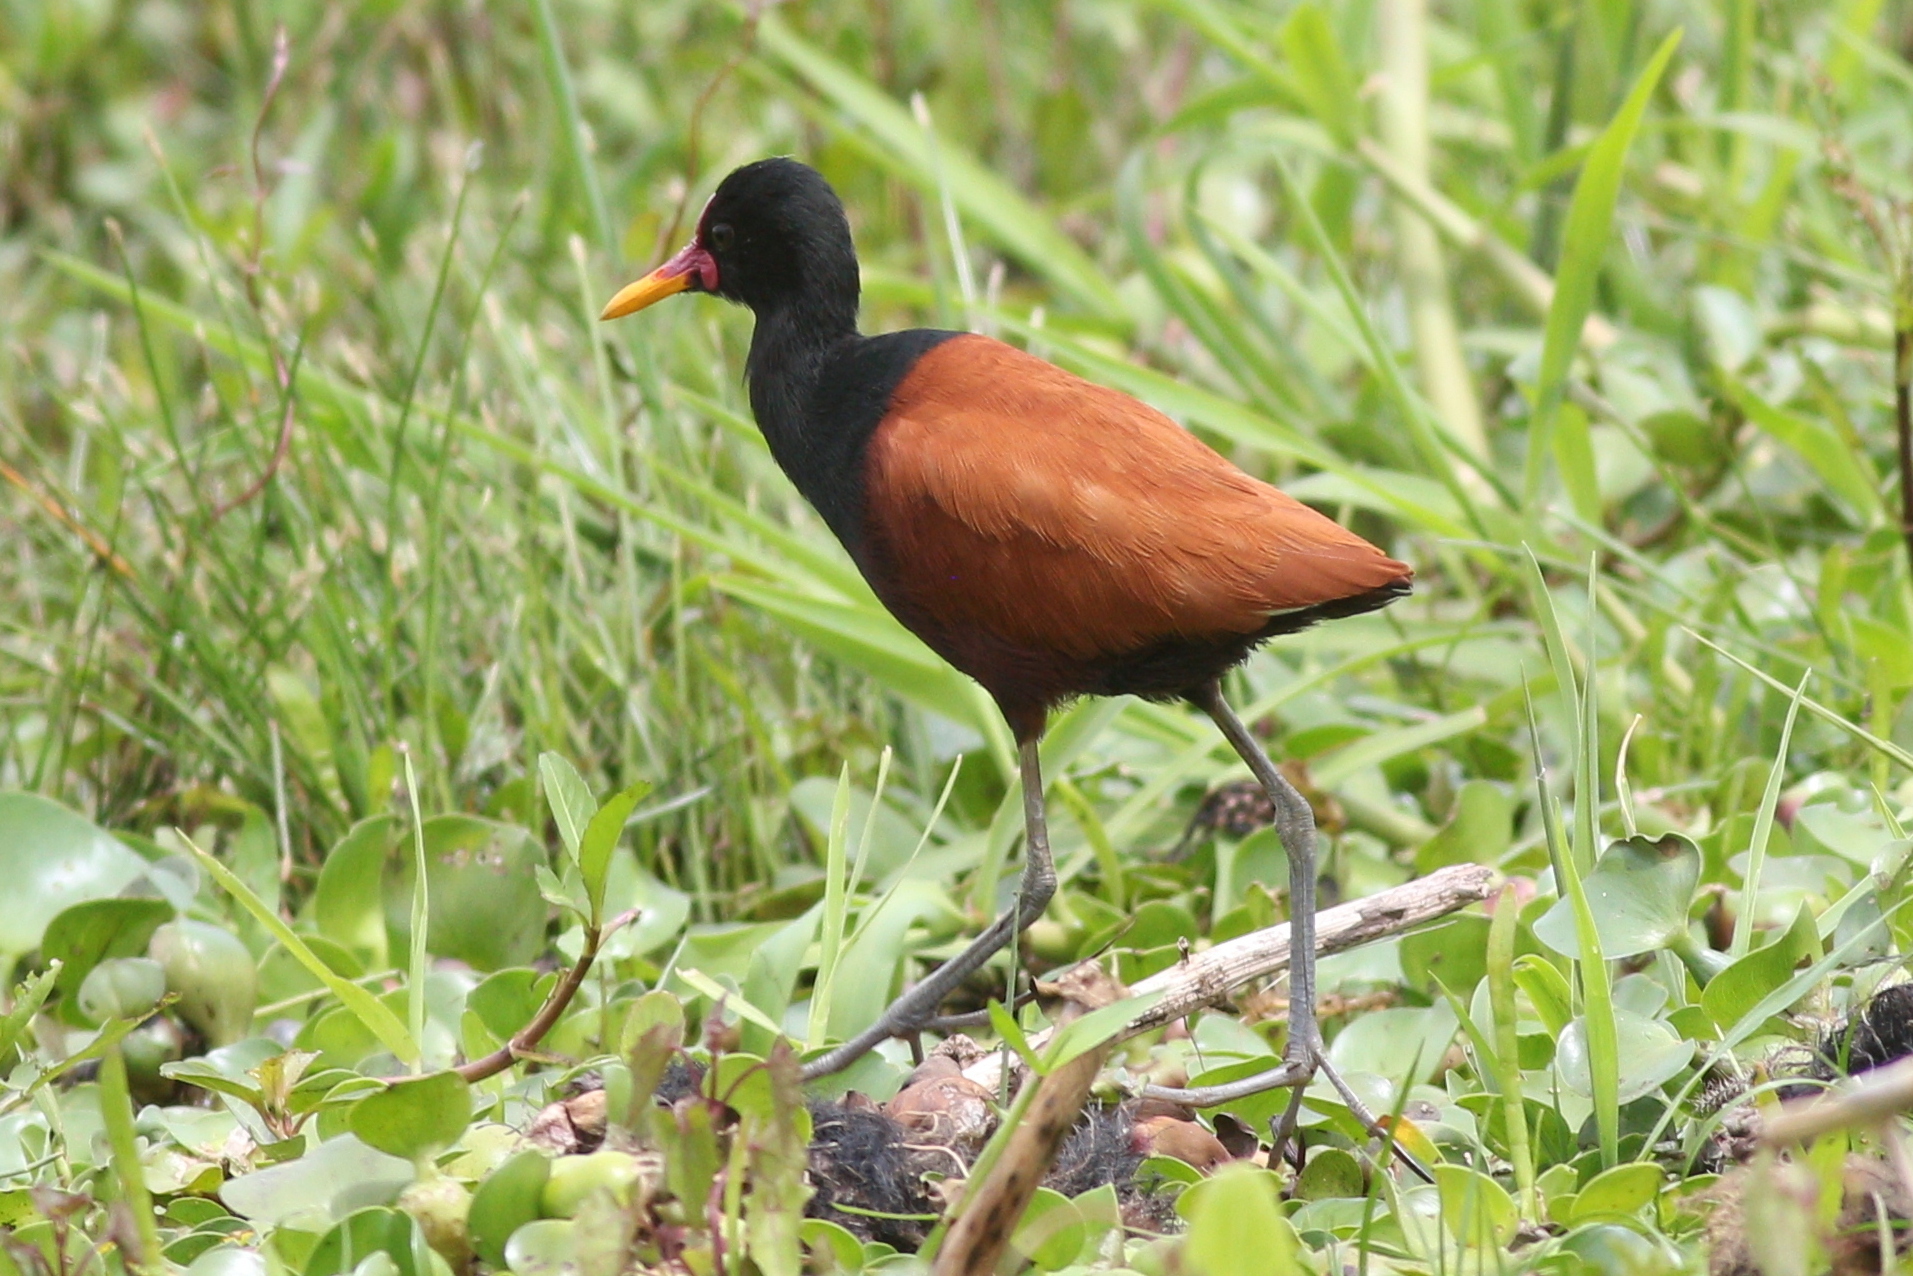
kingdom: Animalia
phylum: Chordata
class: Aves
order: Charadriiformes
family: Jacanidae
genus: Jacana
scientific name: Jacana jacana
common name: Wattled jacana
